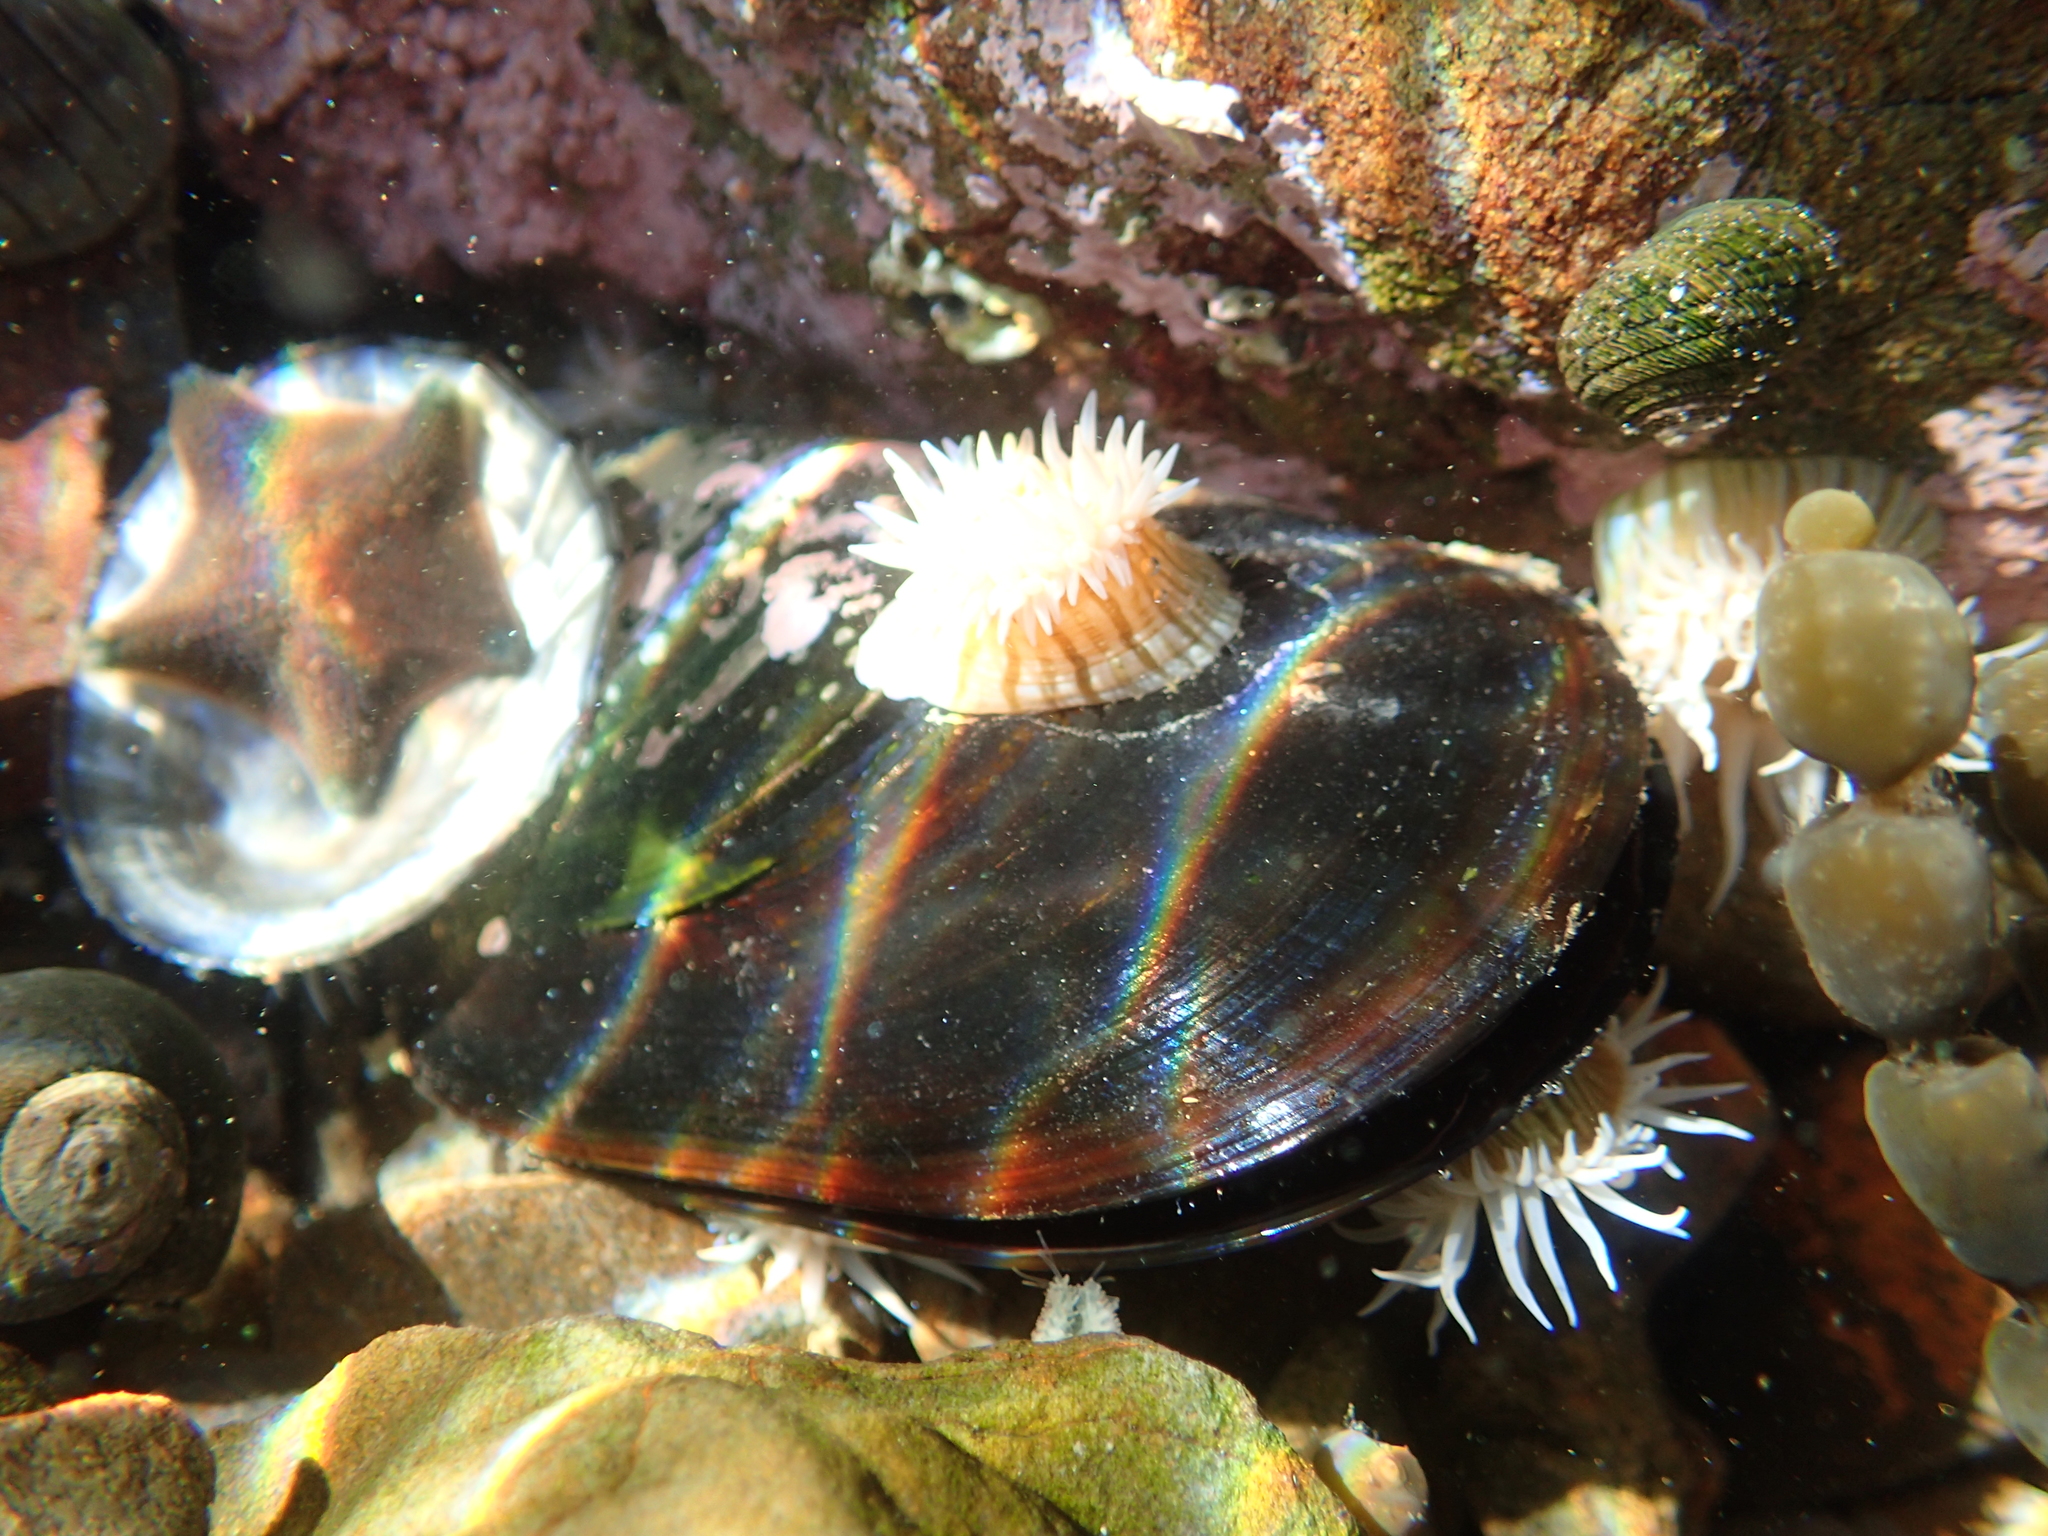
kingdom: Animalia
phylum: Cnidaria
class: Anthozoa
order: Actiniaria
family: Sagartiidae
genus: Anthothoe
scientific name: Anthothoe albocincta
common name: Orange striped anemone
